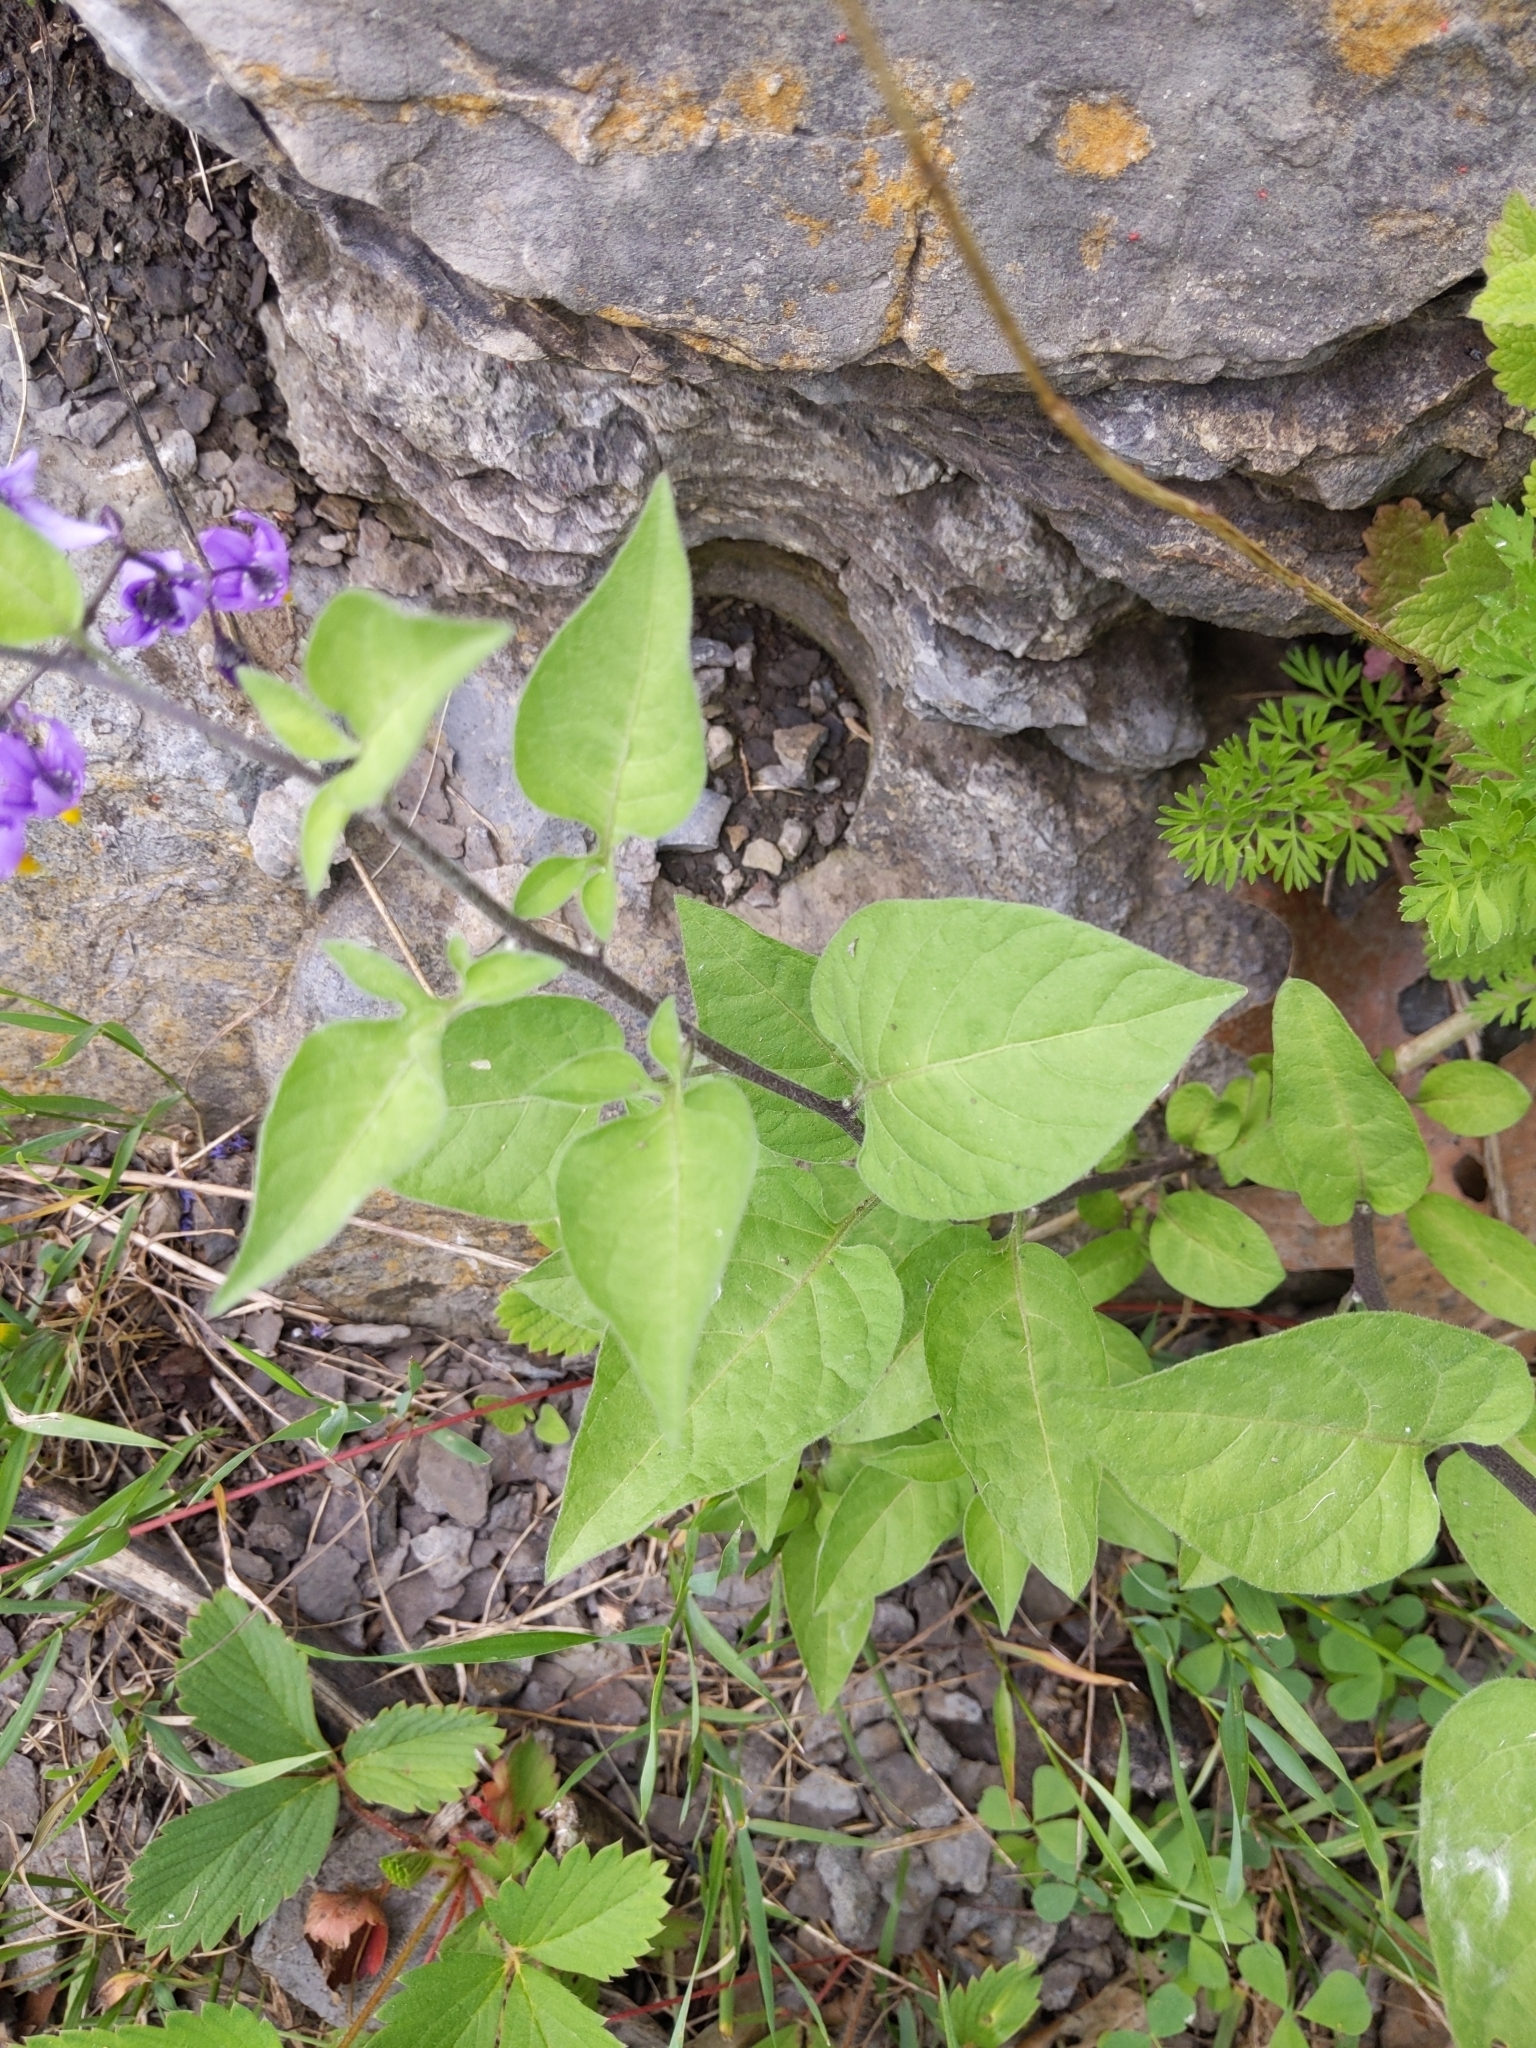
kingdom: Plantae
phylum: Tracheophyta
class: Magnoliopsida
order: Solanales
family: Solanaceae
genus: Solanum
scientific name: Solanum dulcamara
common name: Climbing nightshade
